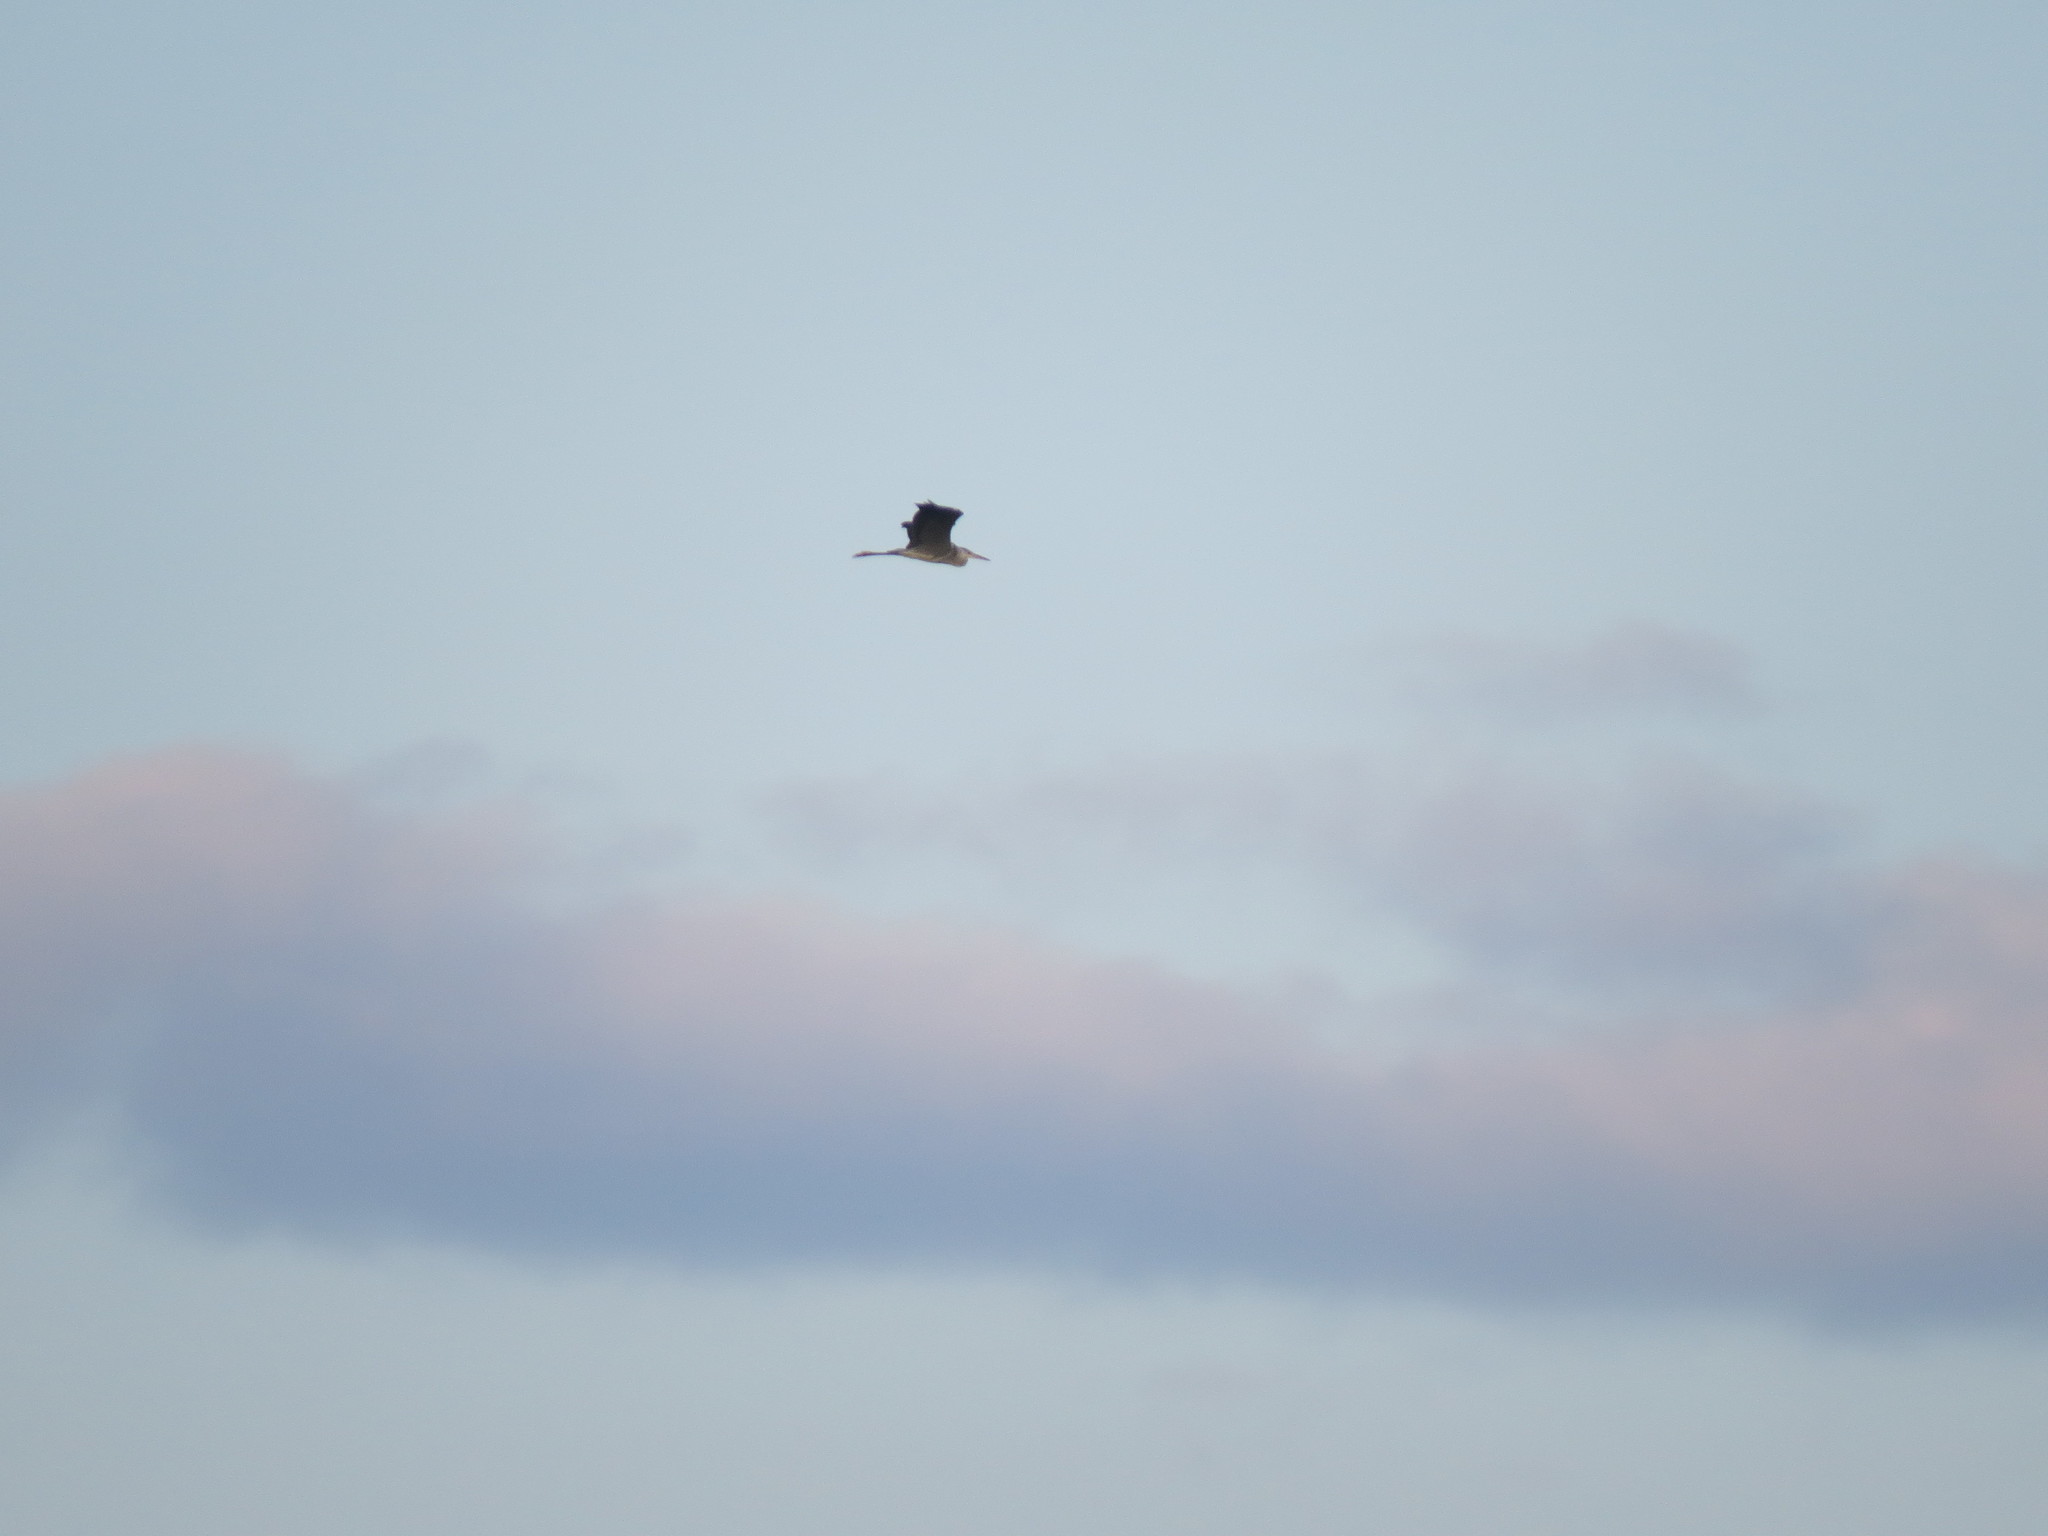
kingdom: Animalia
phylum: Chordata
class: Aves
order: Pelecaniformes
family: Ardeidae
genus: Ardea
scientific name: Ardea cinerea
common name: Grey heron
